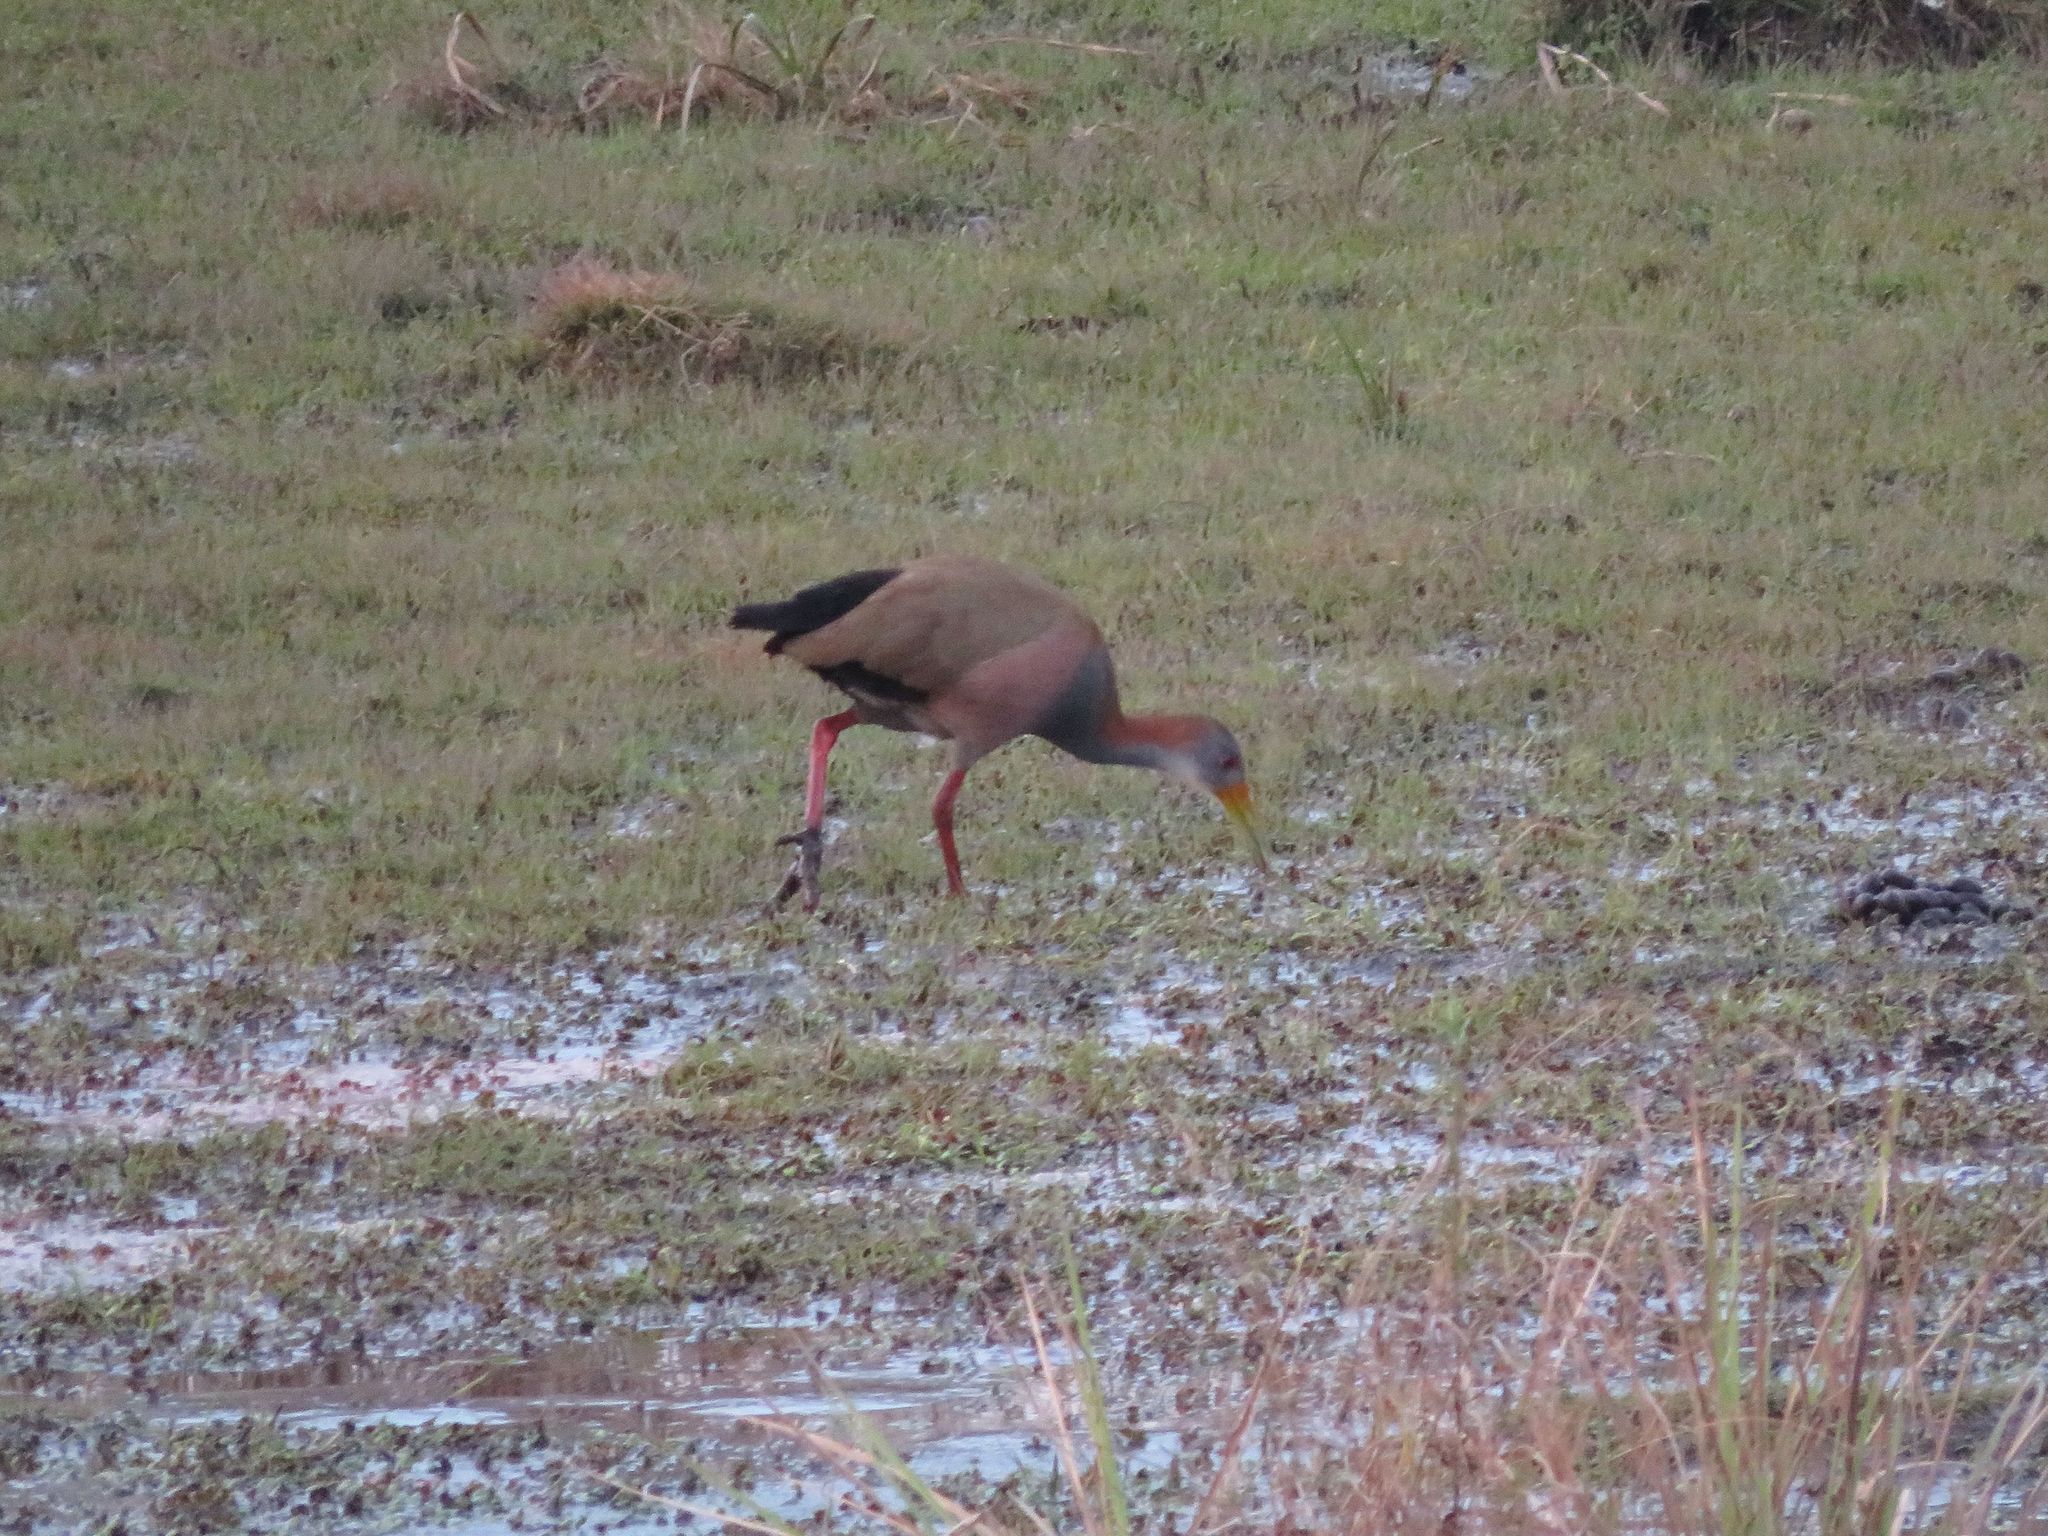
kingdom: Animalia
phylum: Chordata
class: Aves
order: Gruiformes
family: Rallidae
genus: Aramides
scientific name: Aramides ypecaha
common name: Giant wood rail
